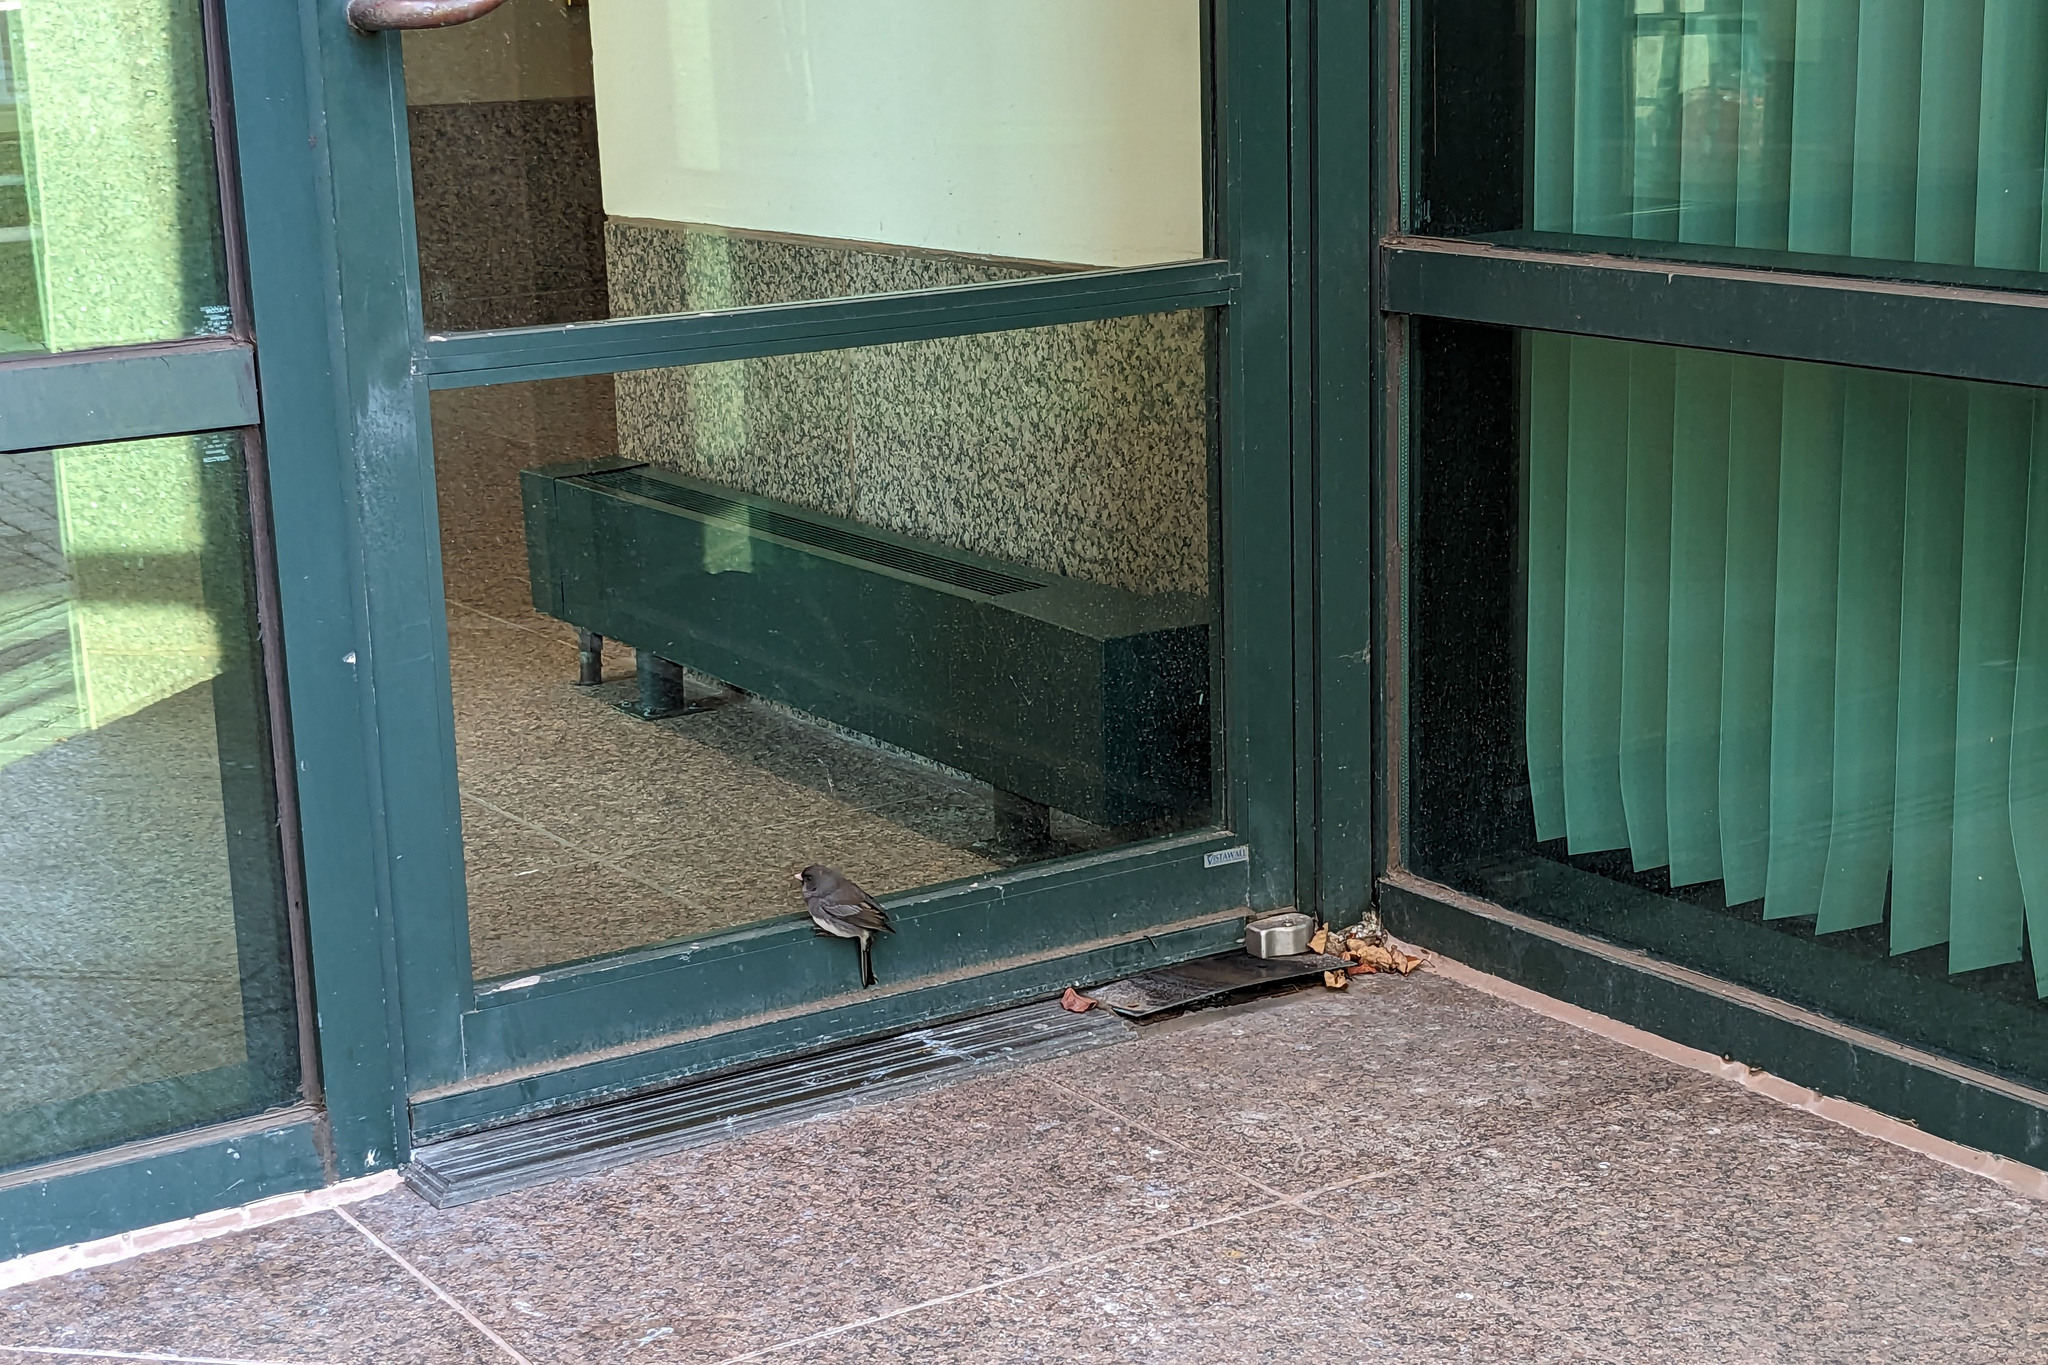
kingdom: Animalia
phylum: Chordata
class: Aves
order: Passeriformes
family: Passerellidae
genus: Junco
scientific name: Junco hyemalis
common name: Dark-eyed junco
